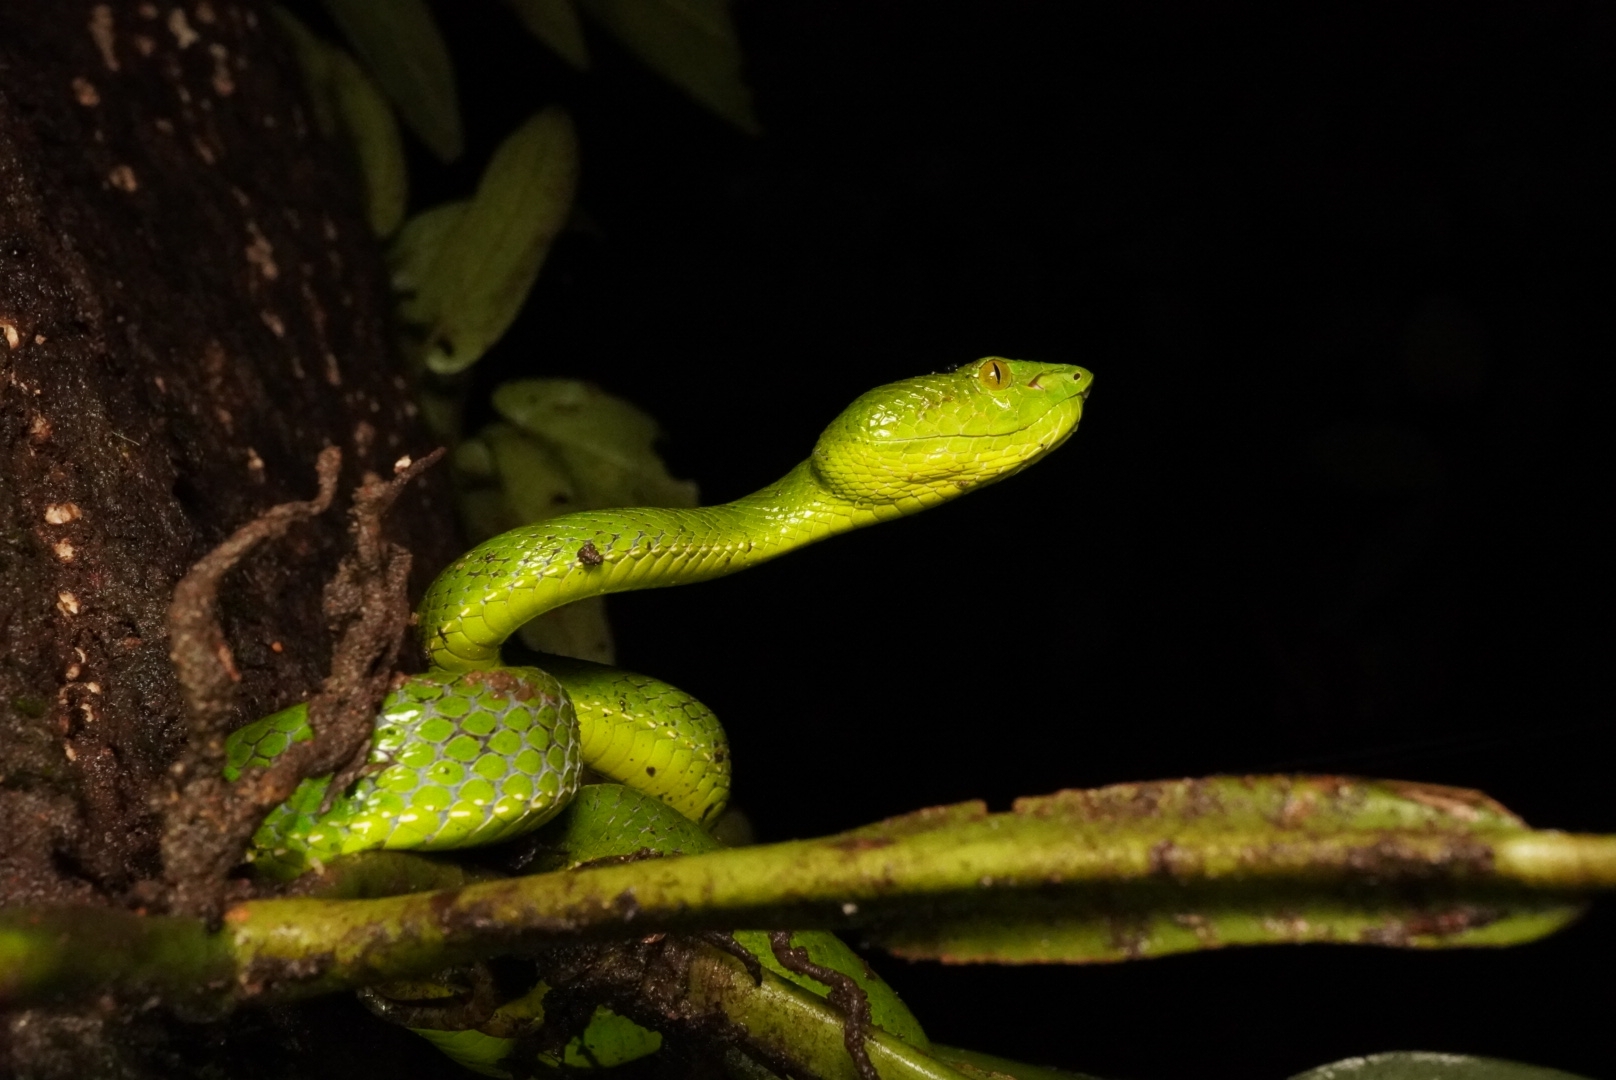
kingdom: Animalia
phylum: Chordata
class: Squamata
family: Viperidae
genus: Trimeresurus
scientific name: Trimeresurus sabahi
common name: Sabah bamboo pit viper
